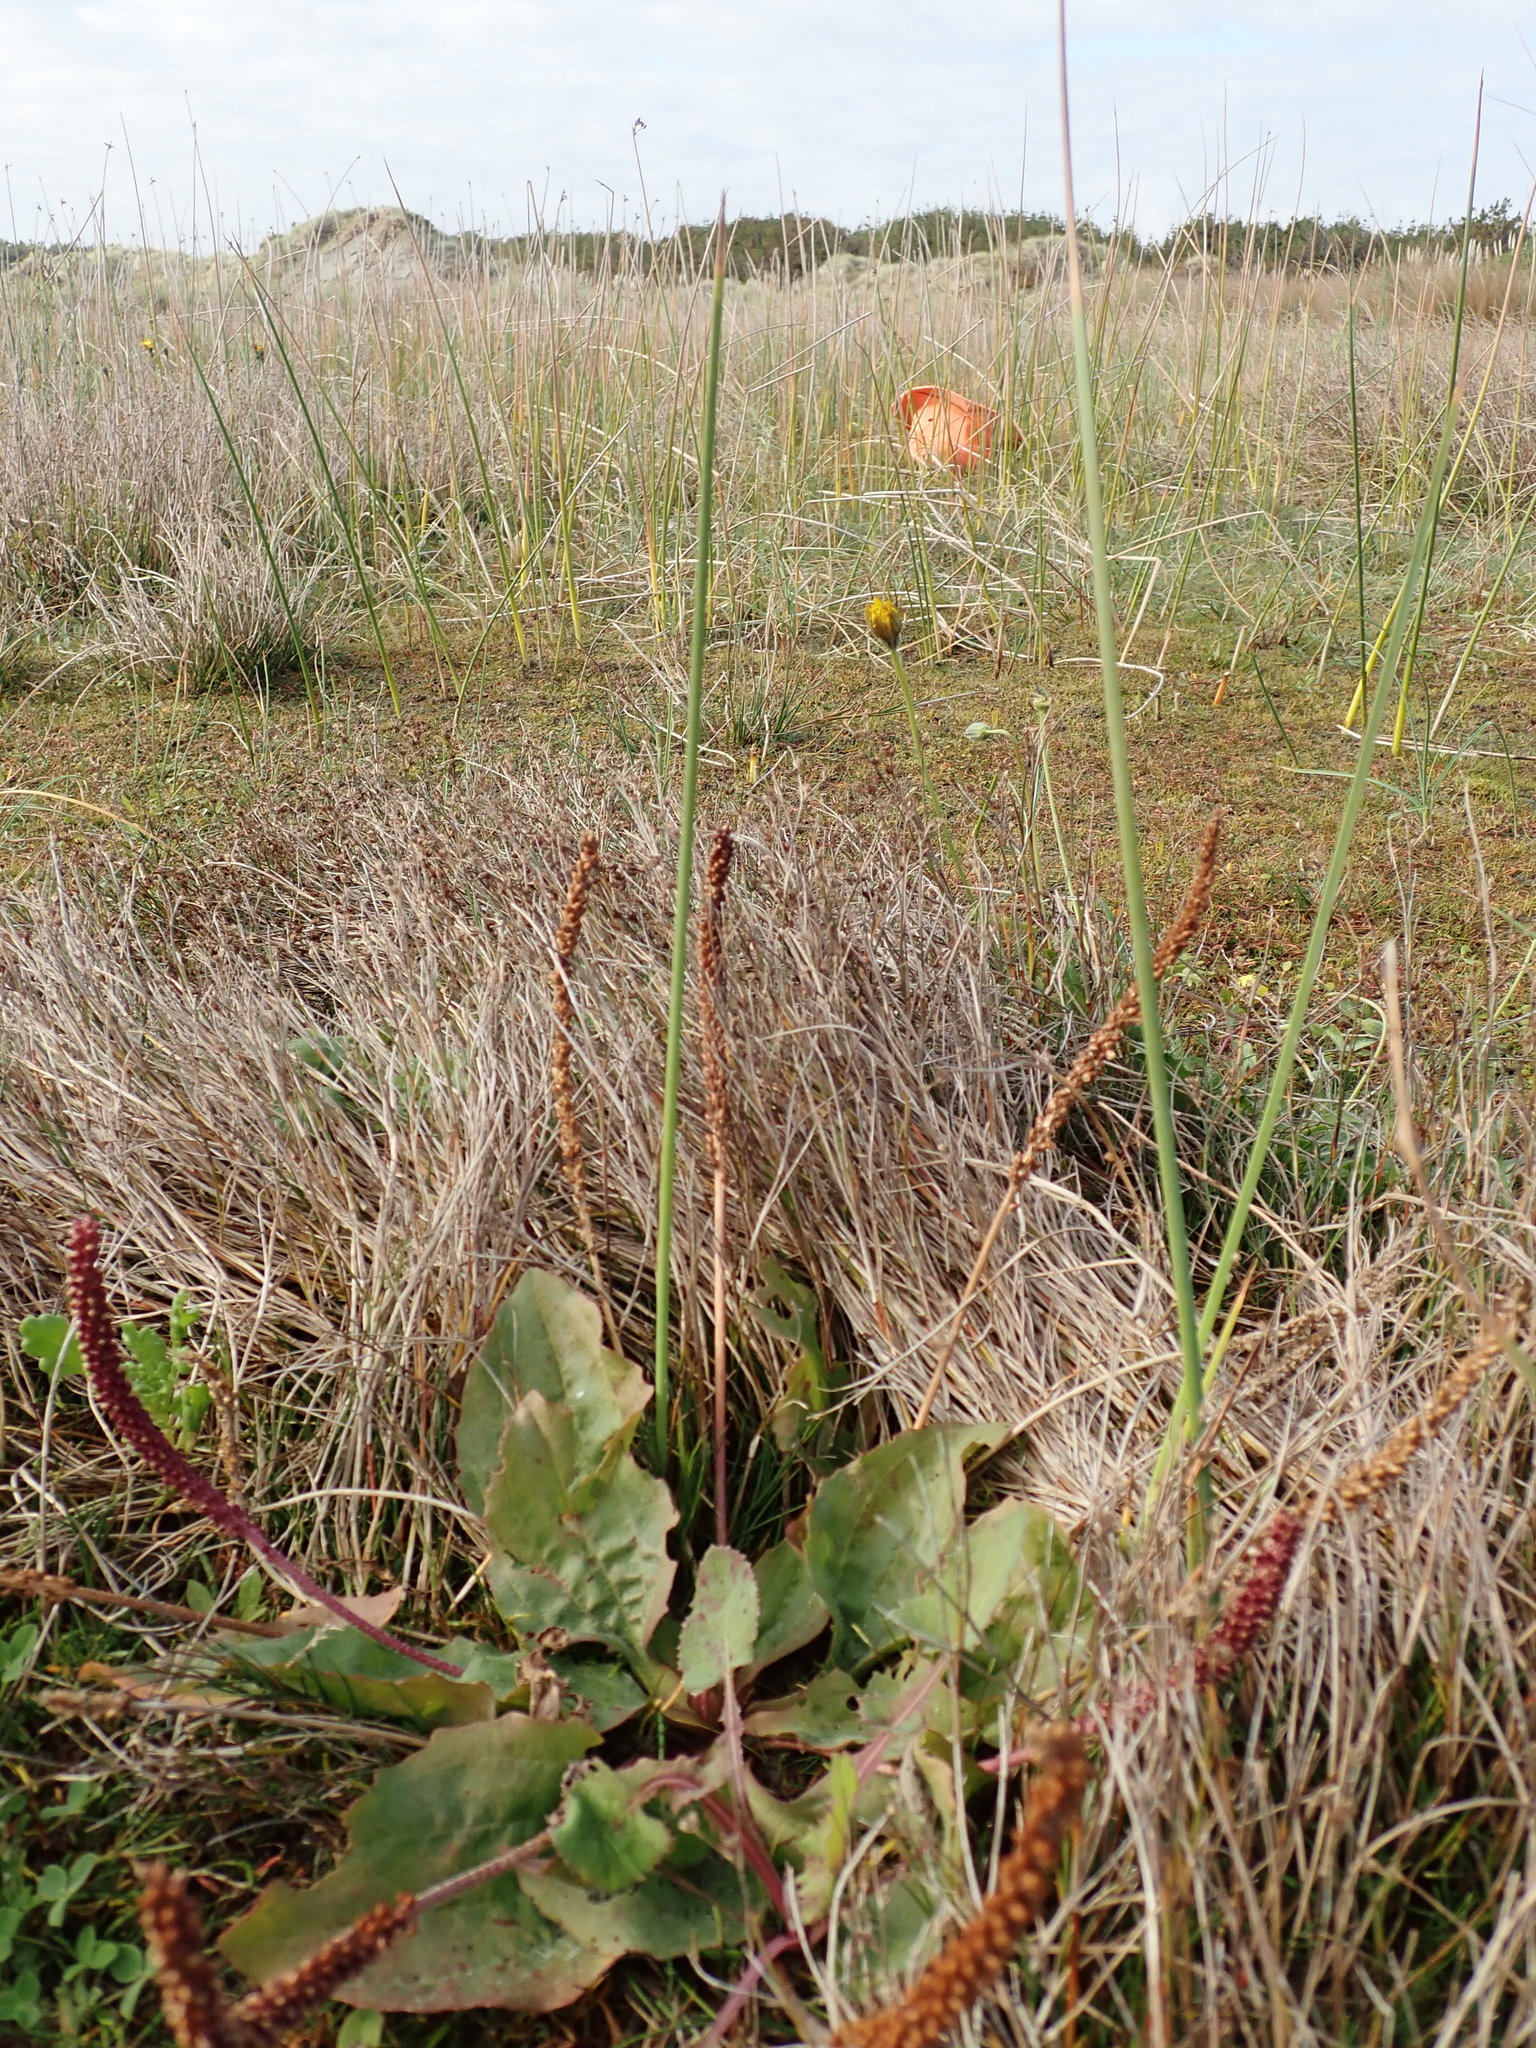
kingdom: Plantae
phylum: Tracheophyta
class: Magnoliopsida
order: Lamiales
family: Plantaginaceae
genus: Plantago
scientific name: Plantago australis
